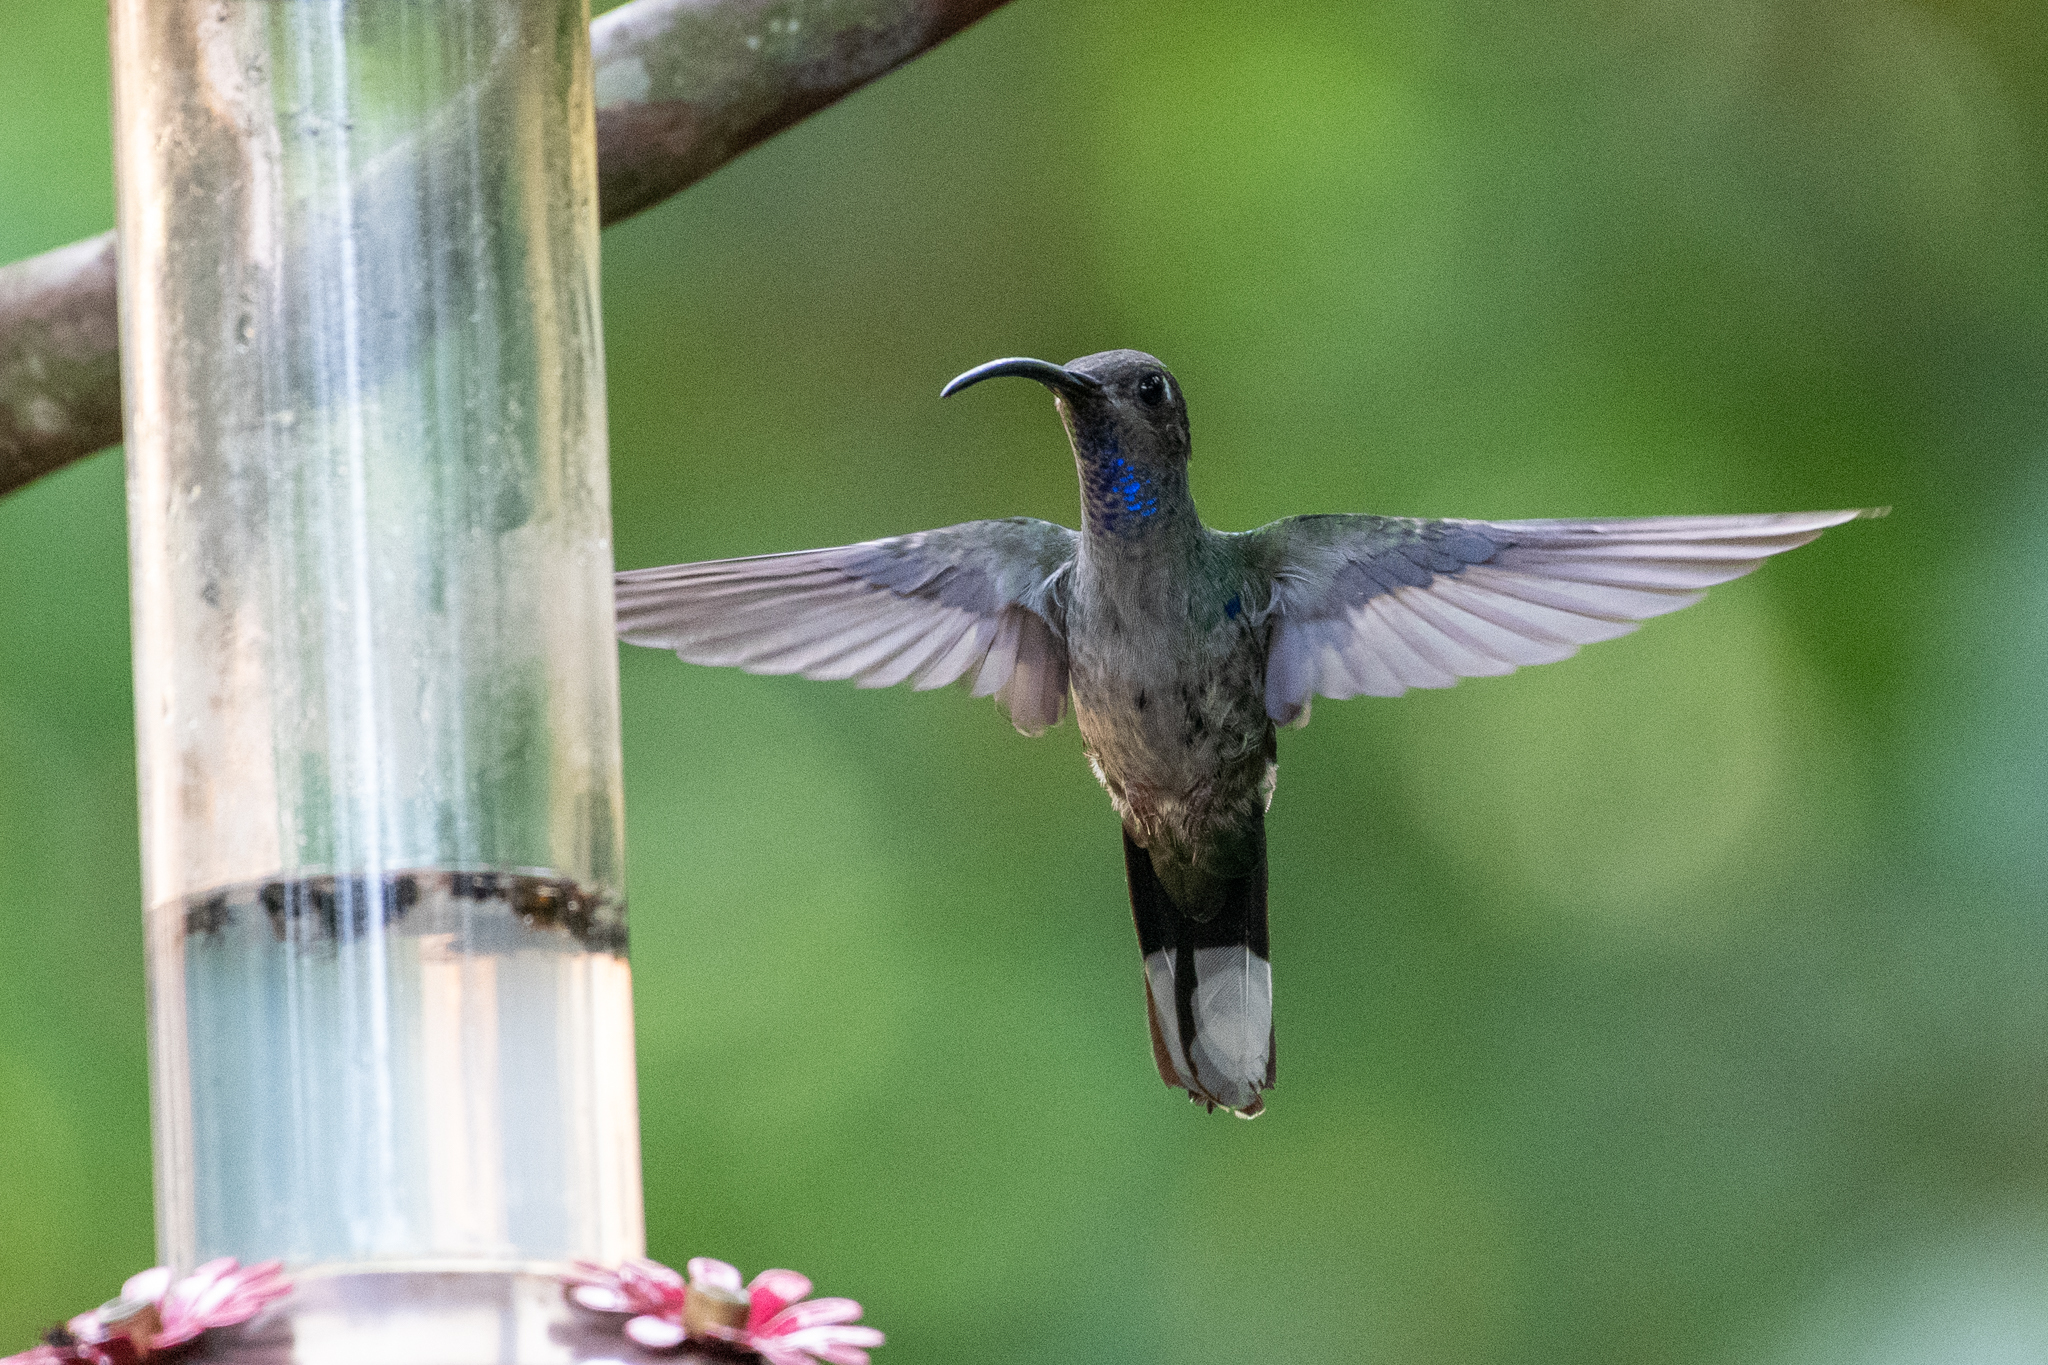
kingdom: Animalia
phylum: Chordata
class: Aves
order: Apodiformes
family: Trochilidae
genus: Campylopterus
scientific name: Campylopterus hemileucurus
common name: Violet sabrewing
